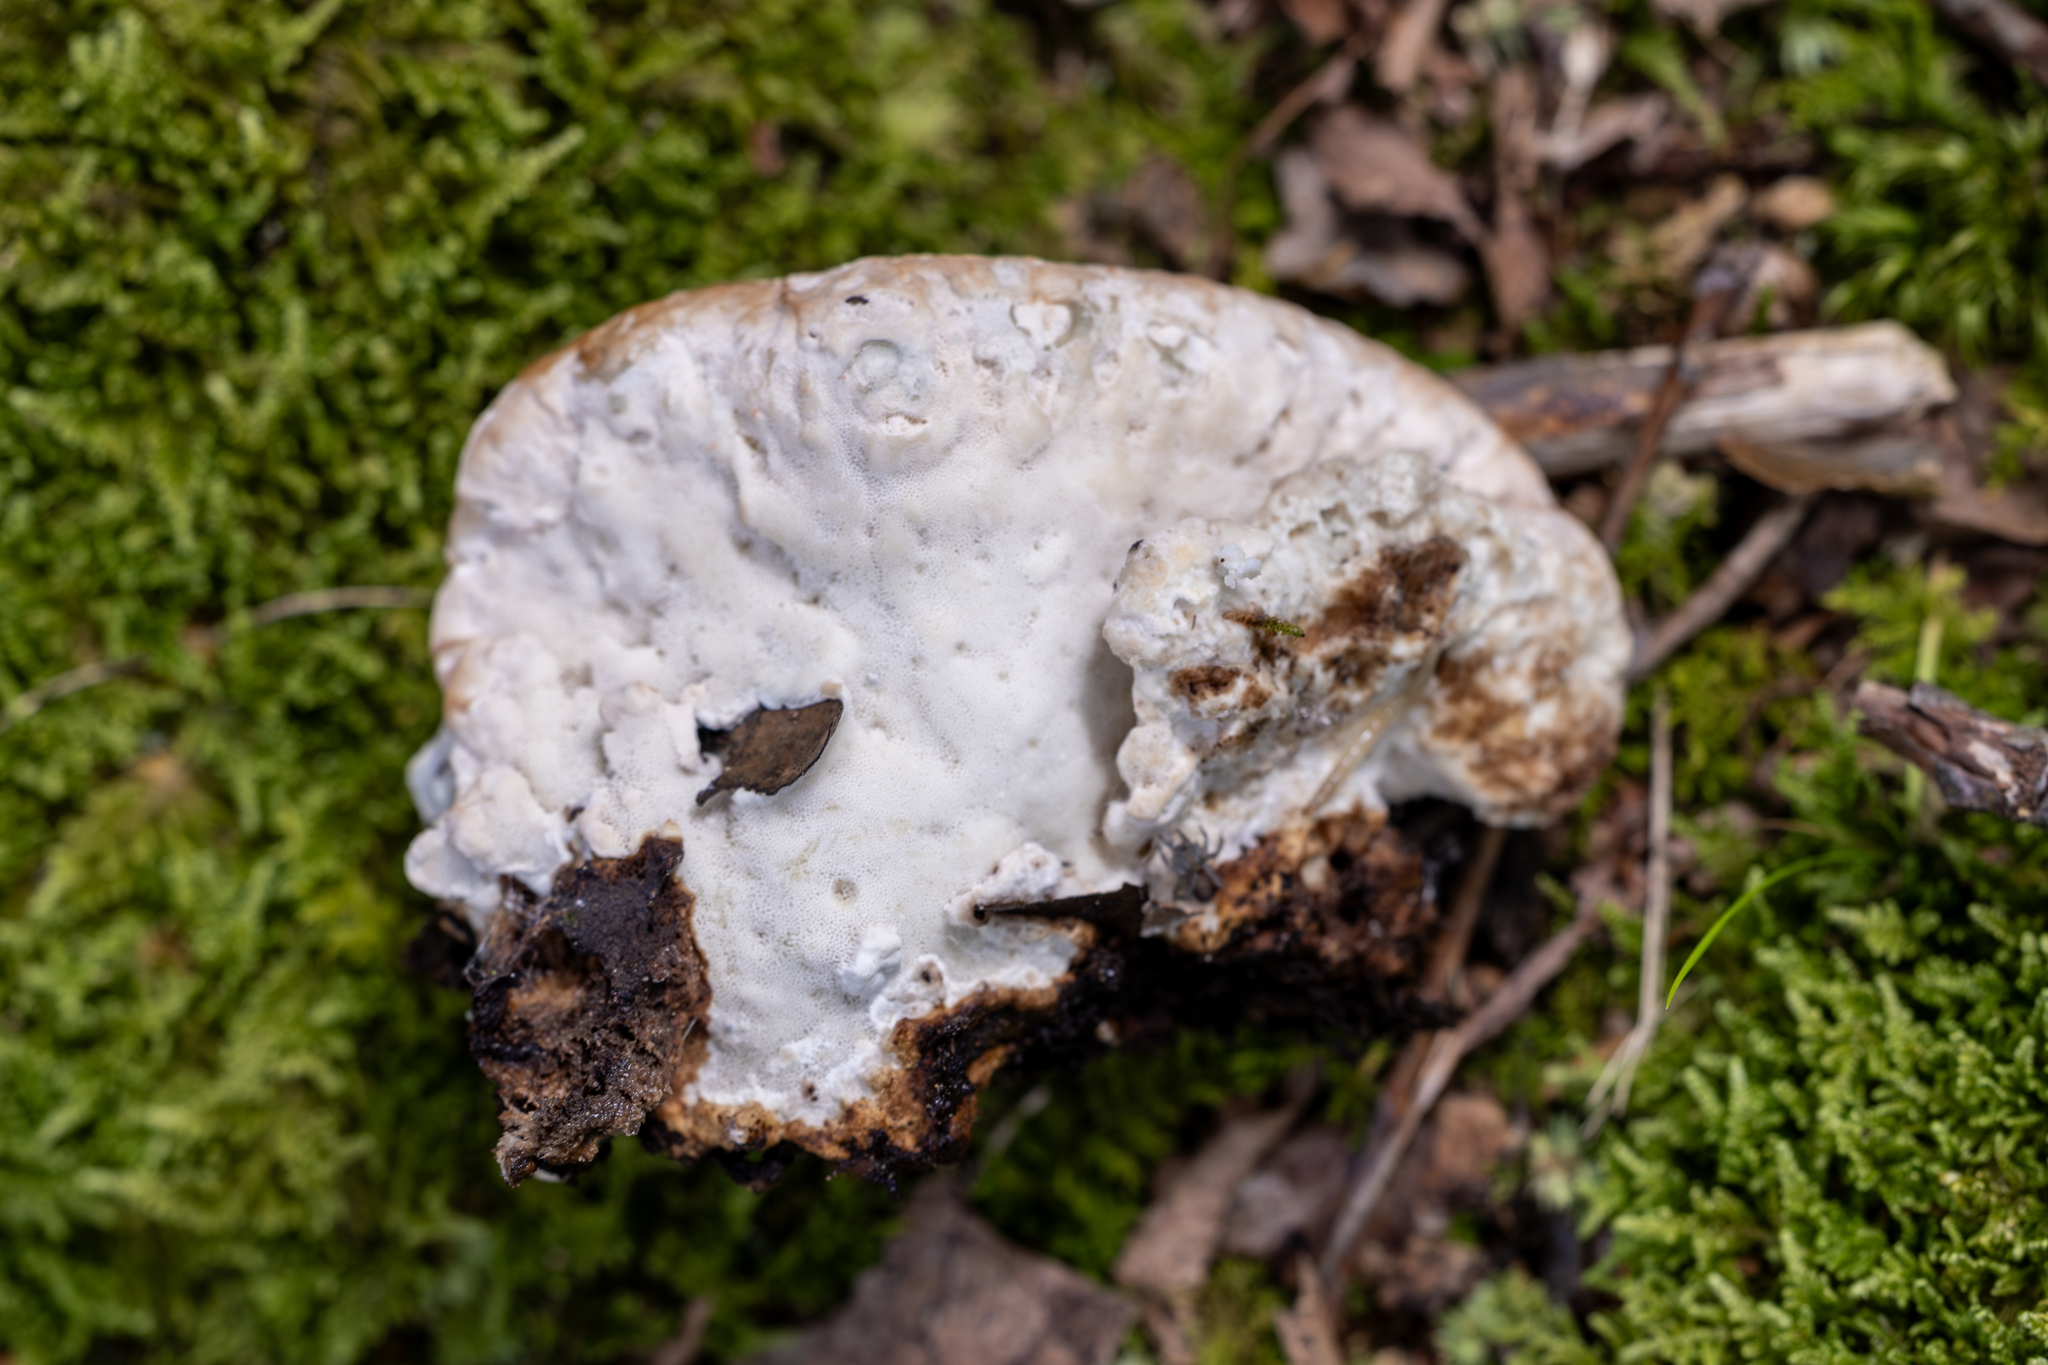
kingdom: Fungi
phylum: Basidiomycota
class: Agaricomycetes
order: Polyporales
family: Fomitopsidaceae
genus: Niveoporofomes
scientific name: Niveoporofomes spraguei
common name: Green cheese polypore
